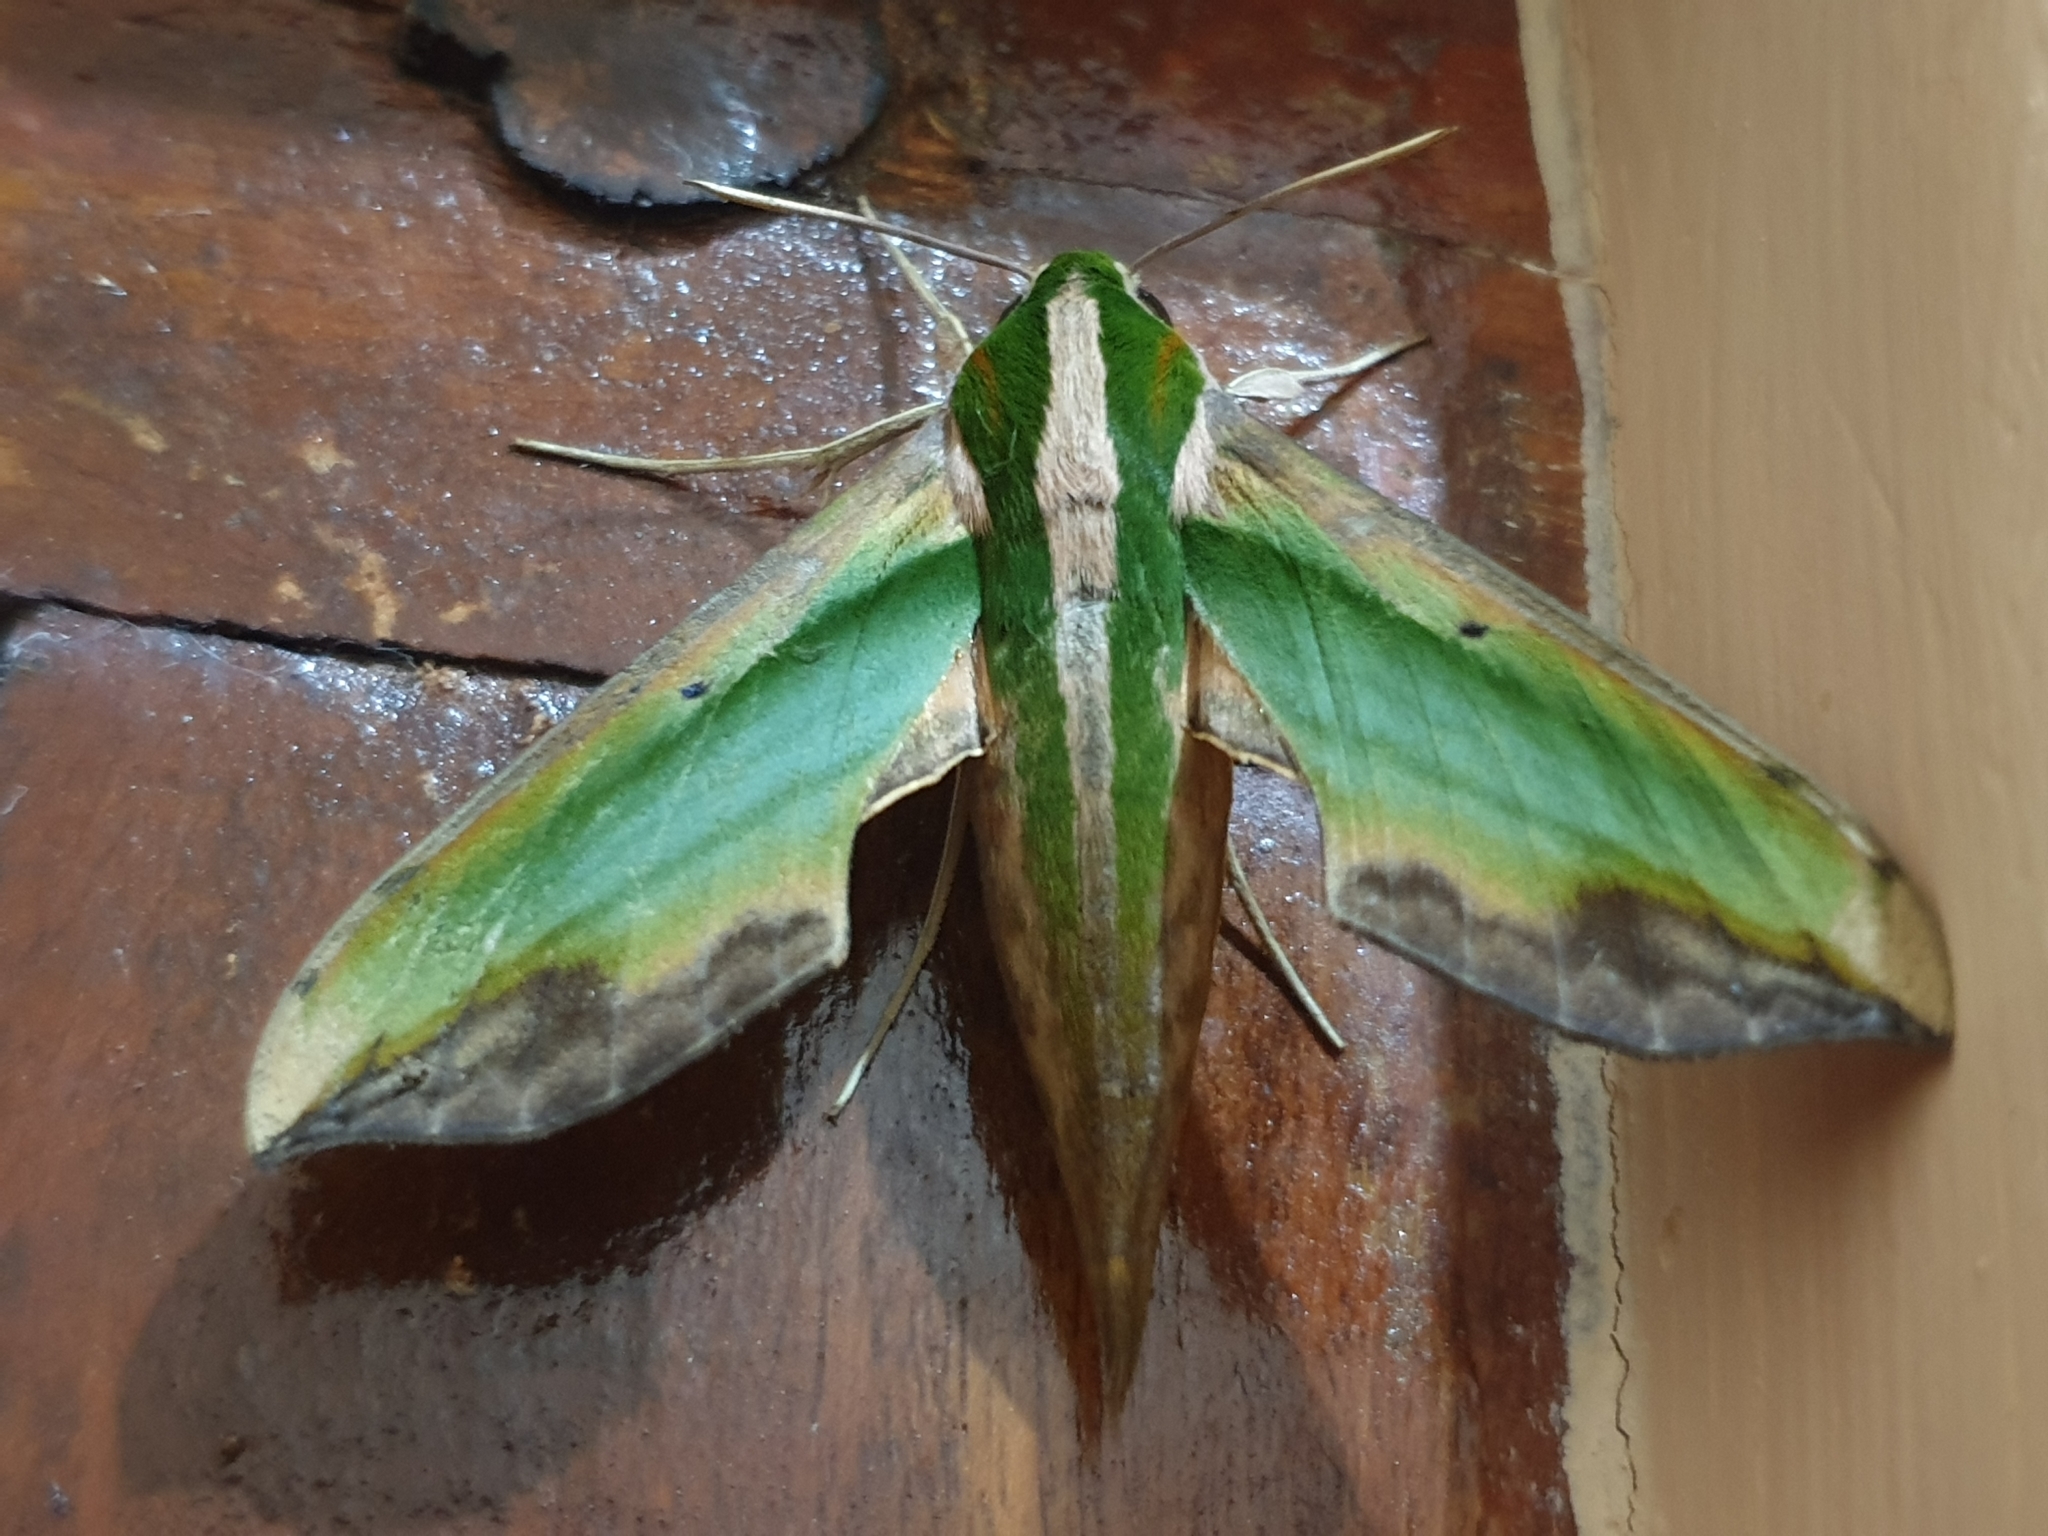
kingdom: Animalia
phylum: Arthropoda
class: Insecta
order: Lepidoptera
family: Sphingidae
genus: Pergesa
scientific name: Pergesa acteus
